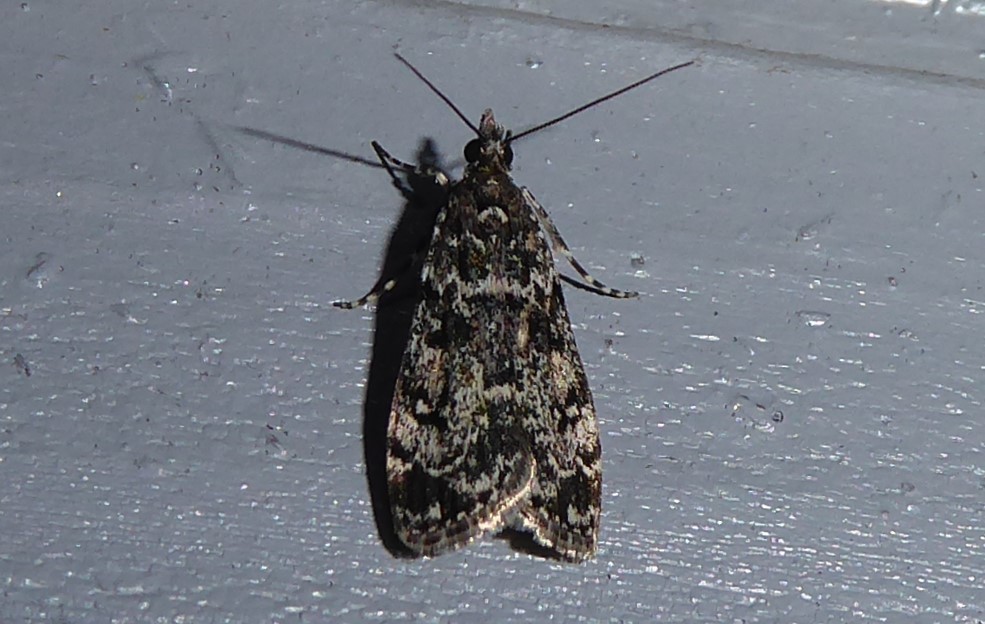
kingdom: Animalia
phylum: Arthropoda
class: Insecta
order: Lepidoptera
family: Crambidae
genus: Eudonia
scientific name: Eudonia philerga
